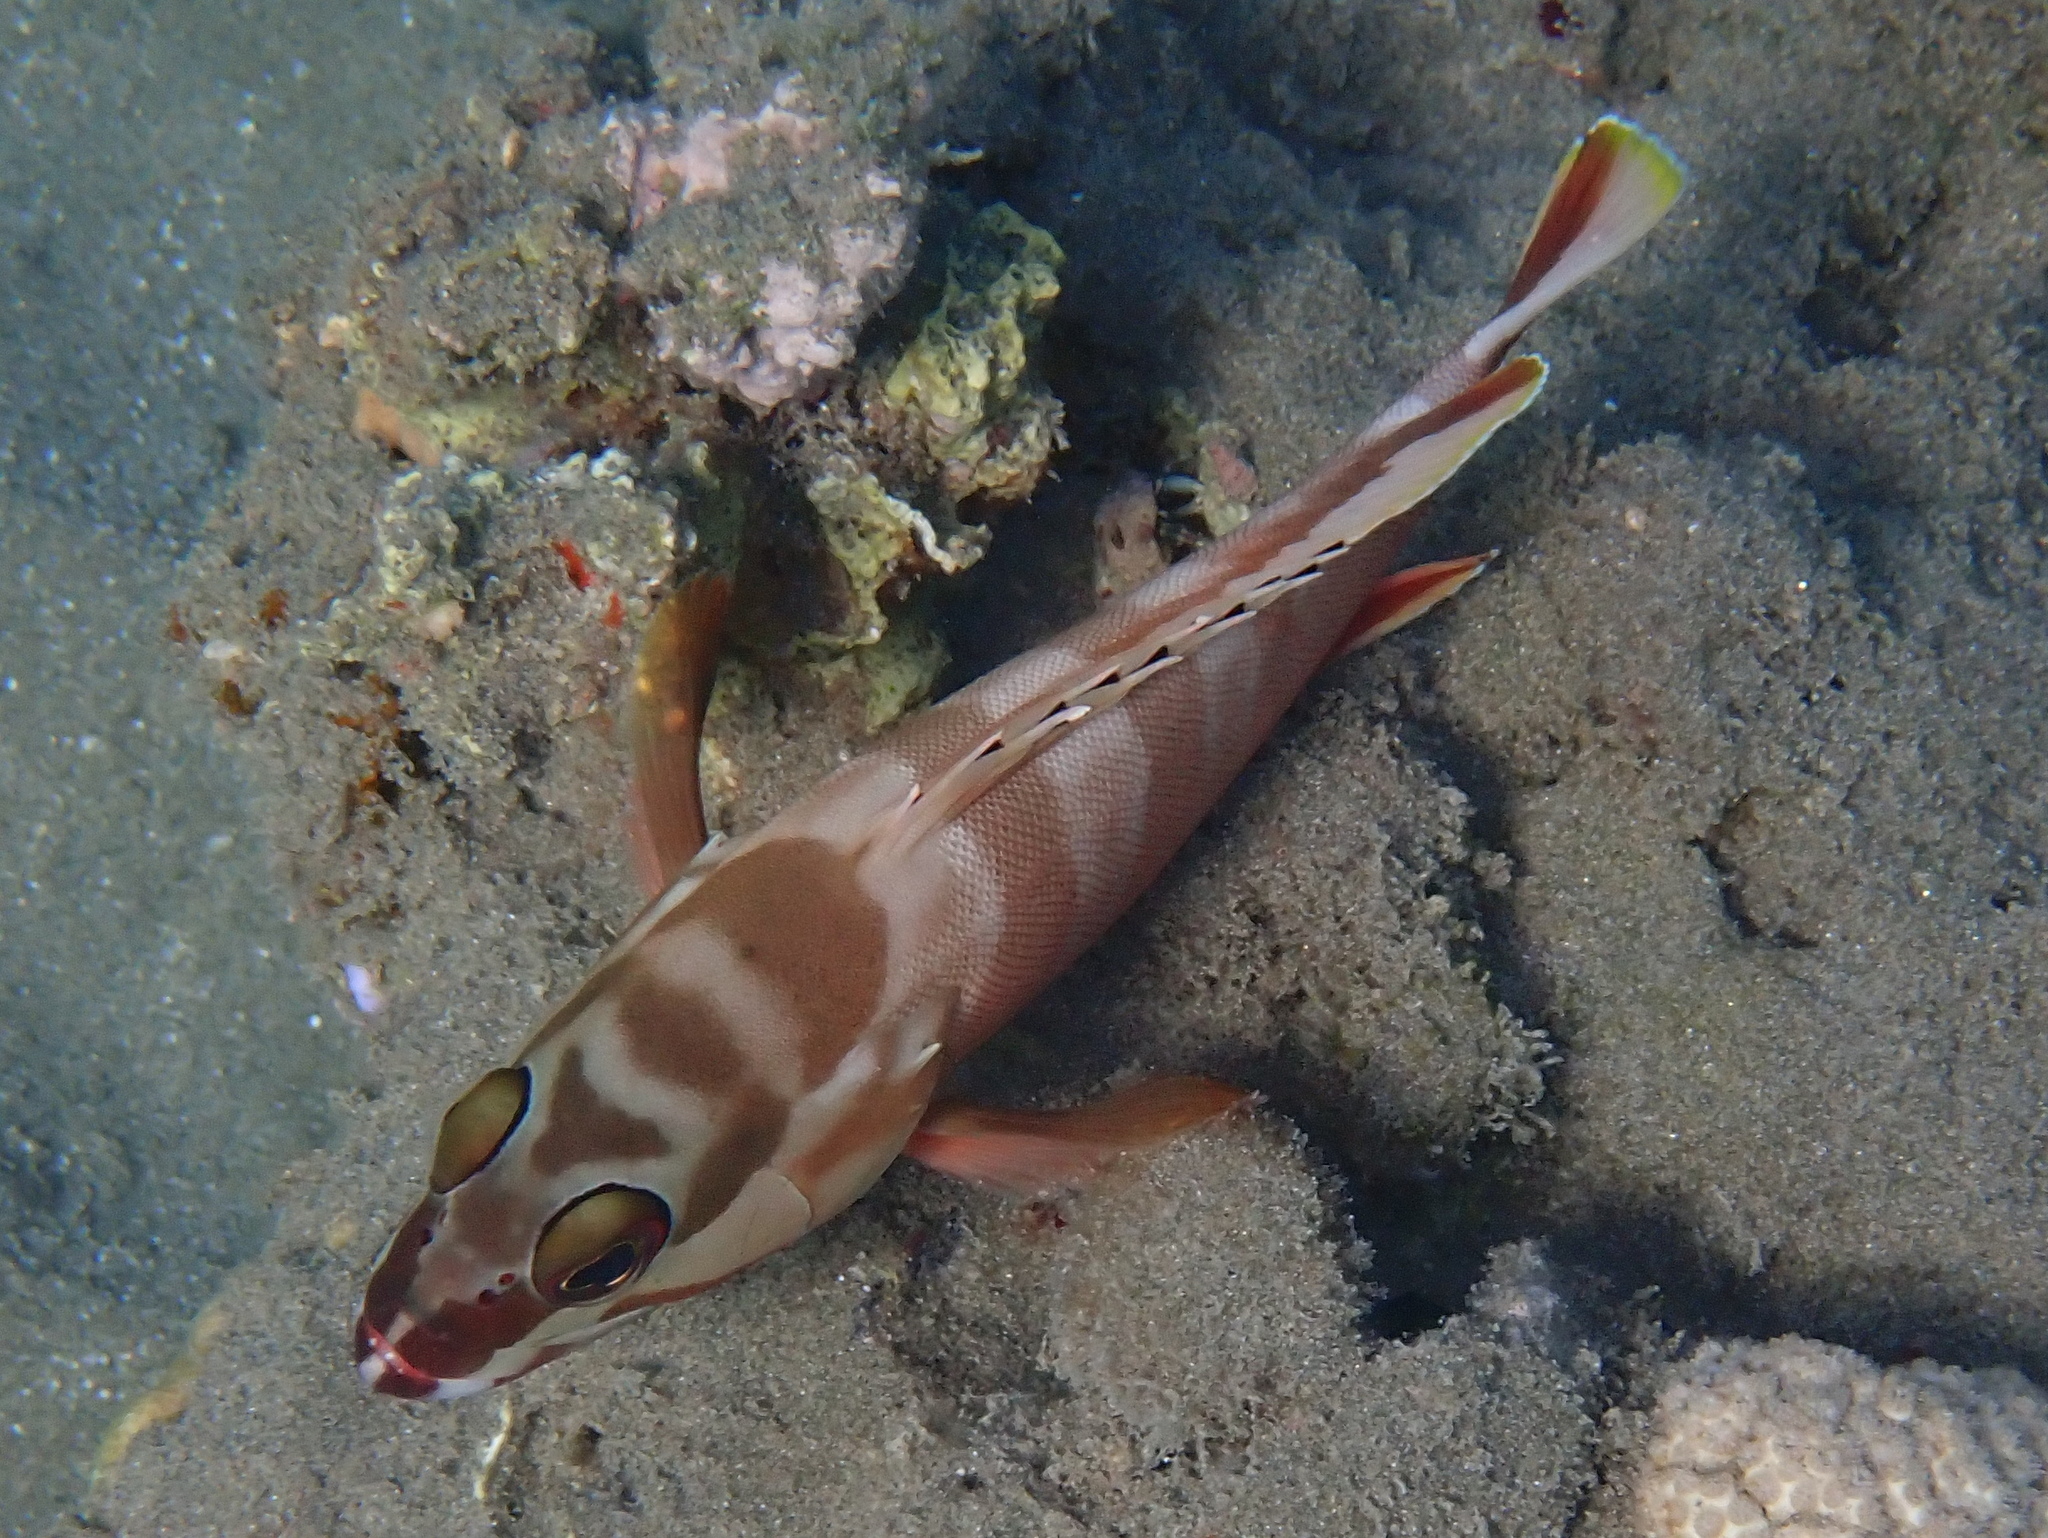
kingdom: Animalia
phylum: Chordata
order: Perciformes
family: Serranidae
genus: Epinephelus
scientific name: Epinephelus fasciatus
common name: Blacktip grouper
